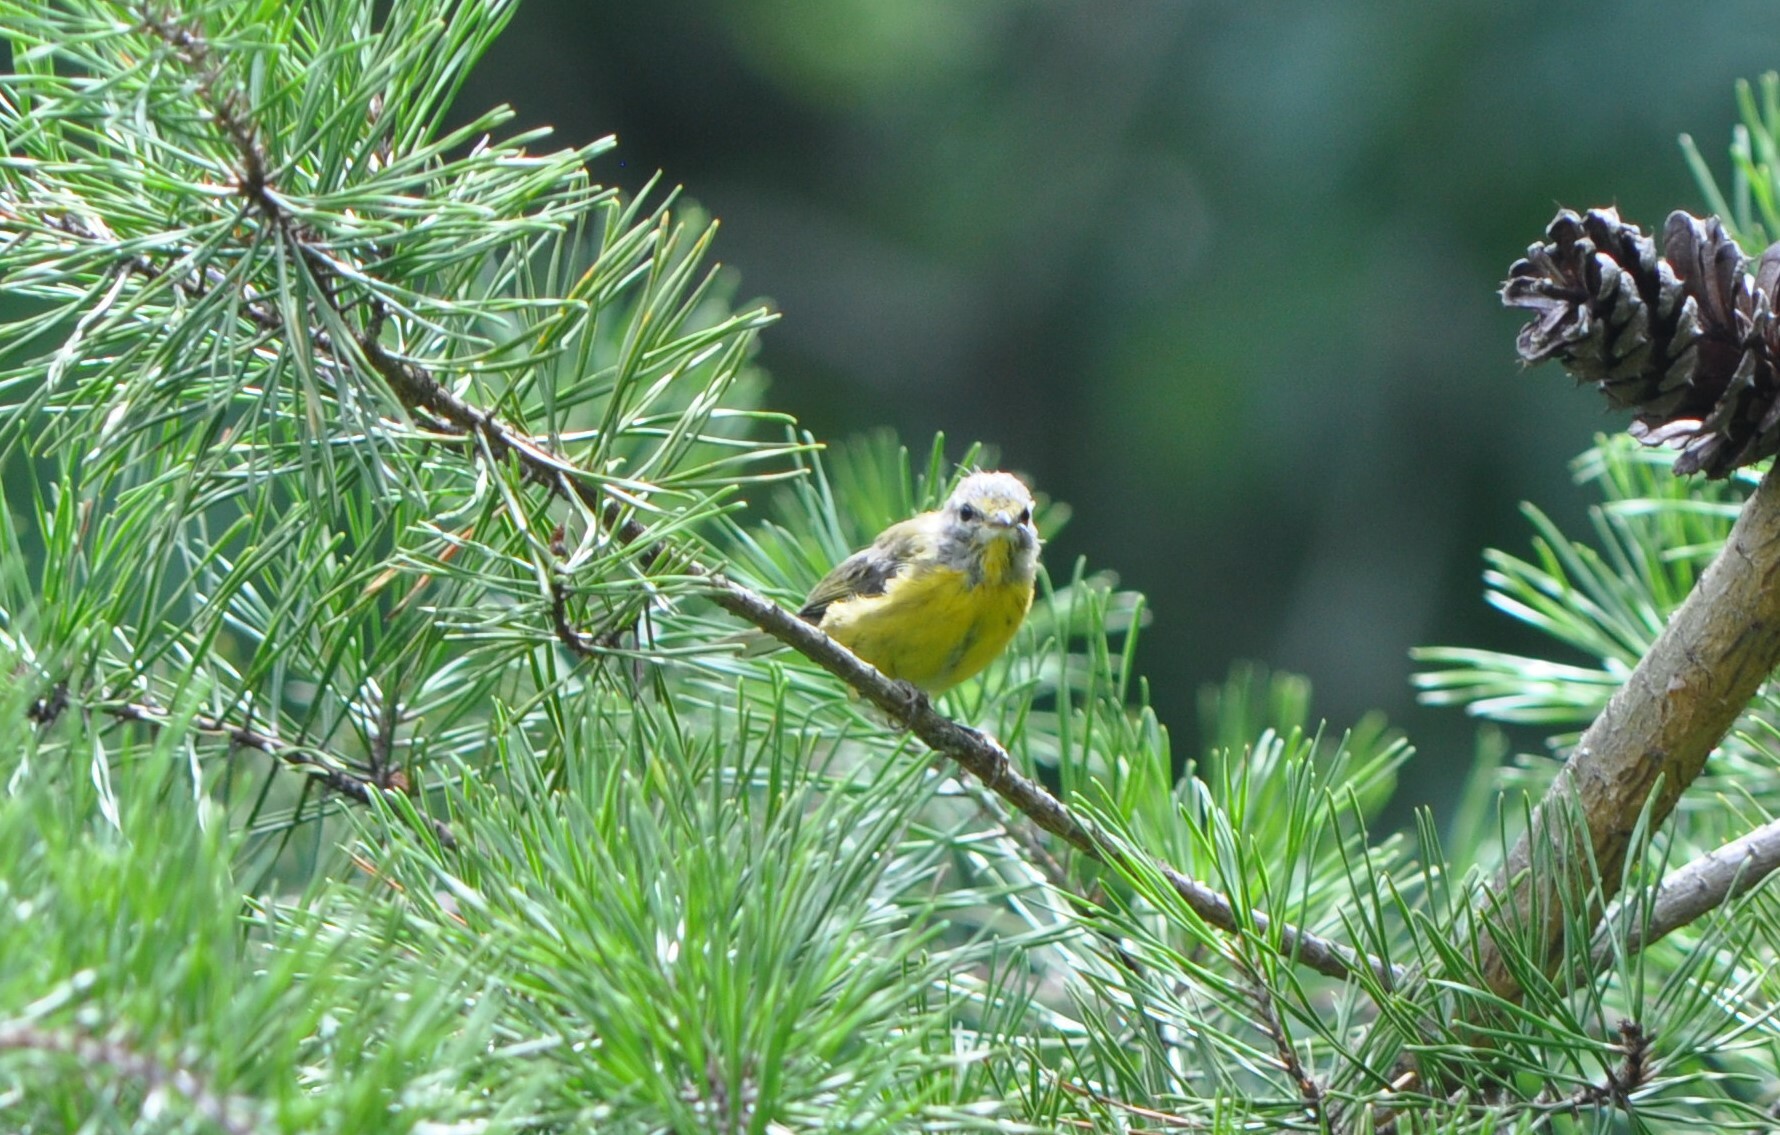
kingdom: Animalia
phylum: Chordata
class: Aves
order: Passeriformes
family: Parulidae
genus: Setophaga
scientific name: Setophaga petechia
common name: Yellow warbler
